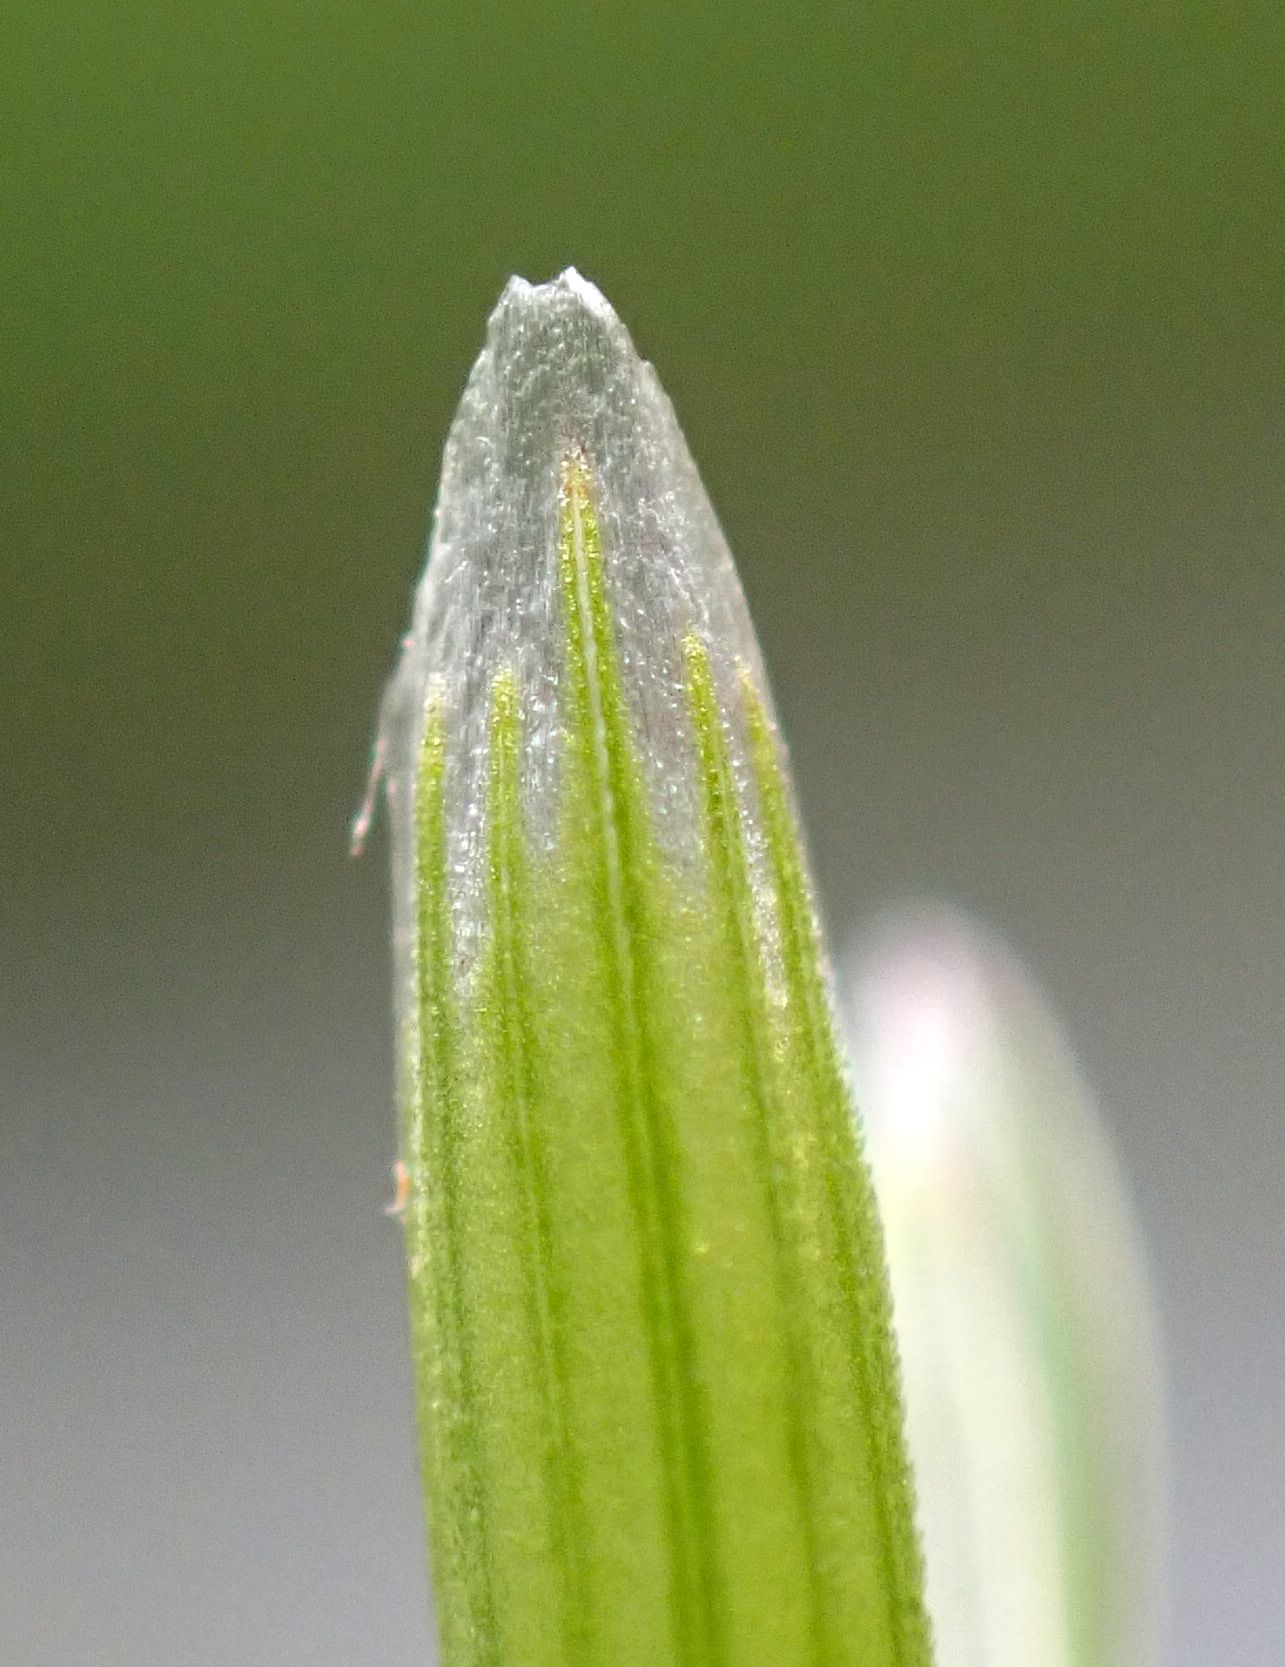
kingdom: Plantae
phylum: Tracheophyta
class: Liliopsida
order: Poales
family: Poaceae
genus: Glyceria
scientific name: Glyceria fluitans
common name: Floating sweet-grass
